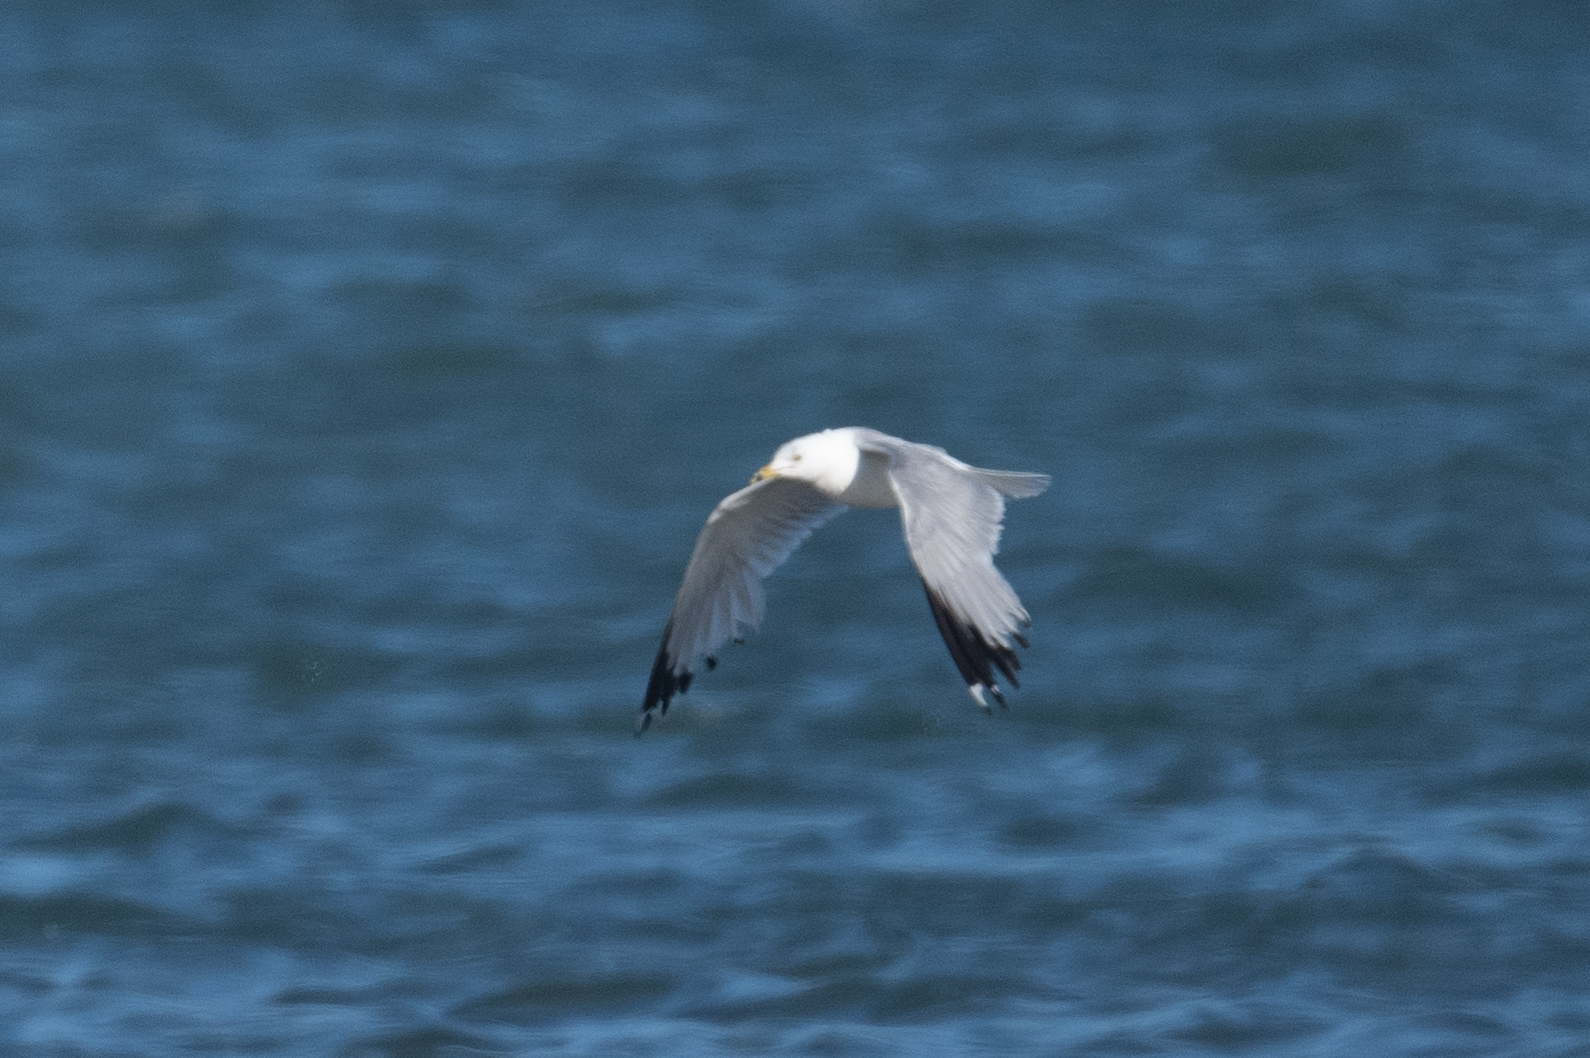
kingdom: Animalia
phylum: Chordata
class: Aves
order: Charadriiformes
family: Laridae
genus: Larus
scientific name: Larus delawarensis
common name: Ring-billed gull
